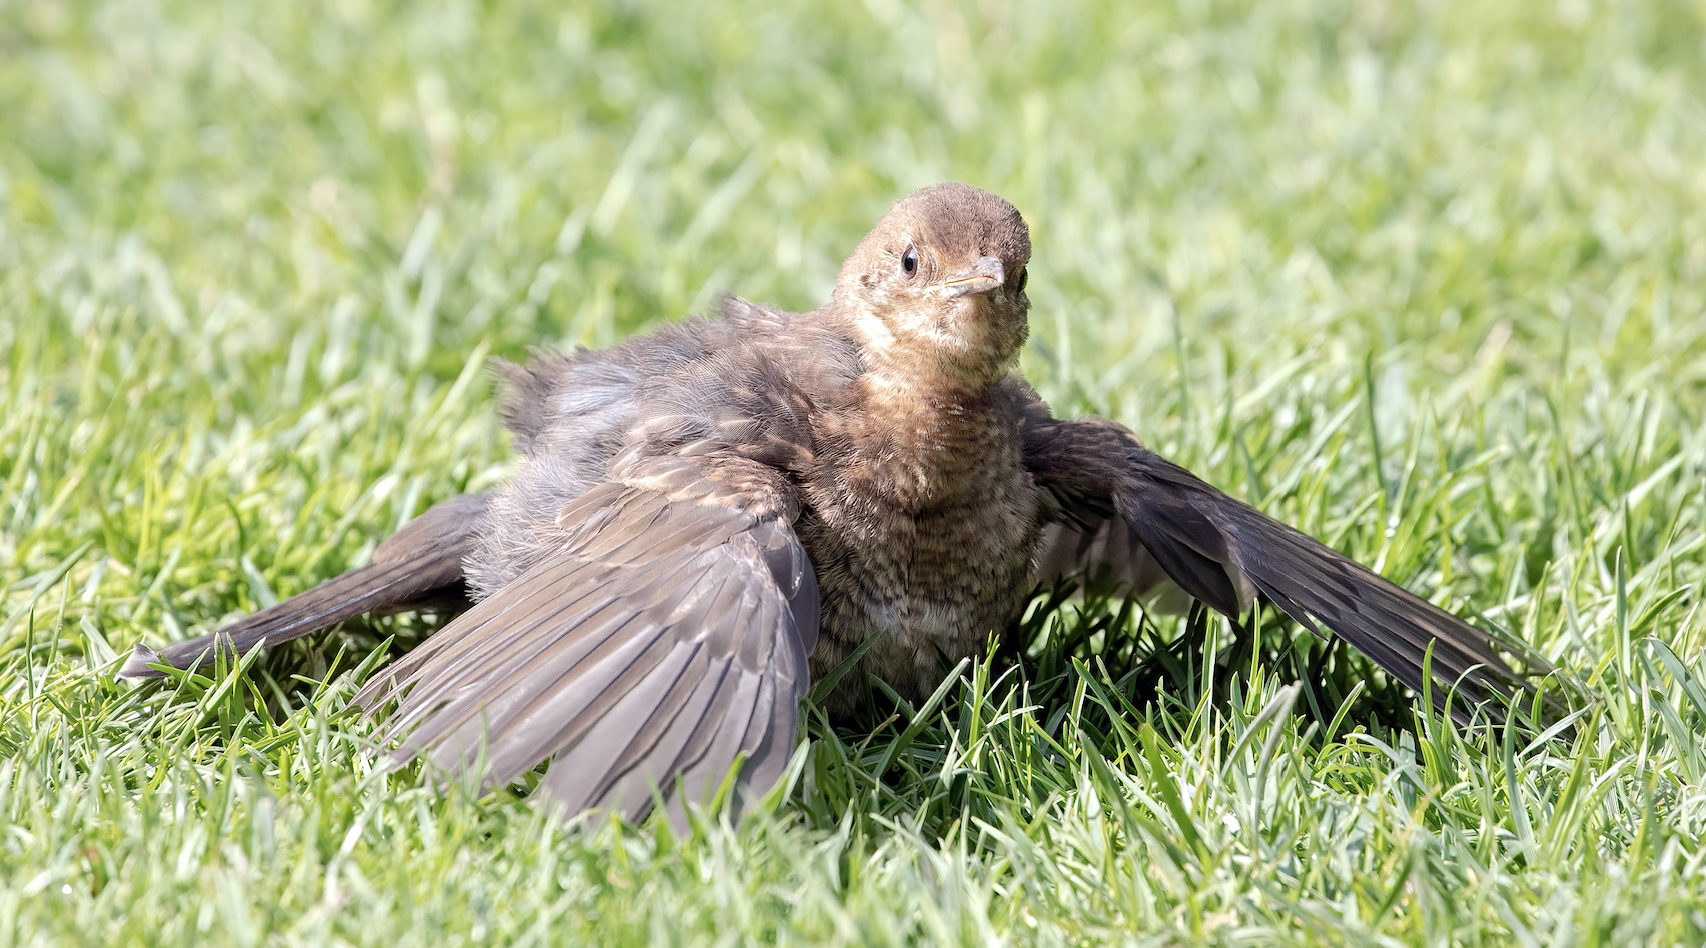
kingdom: Animalia
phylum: Chordata
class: Aves
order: Passeriformes
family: Turdidae
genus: Turdus
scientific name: Turdus merula
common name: Common blackbird
